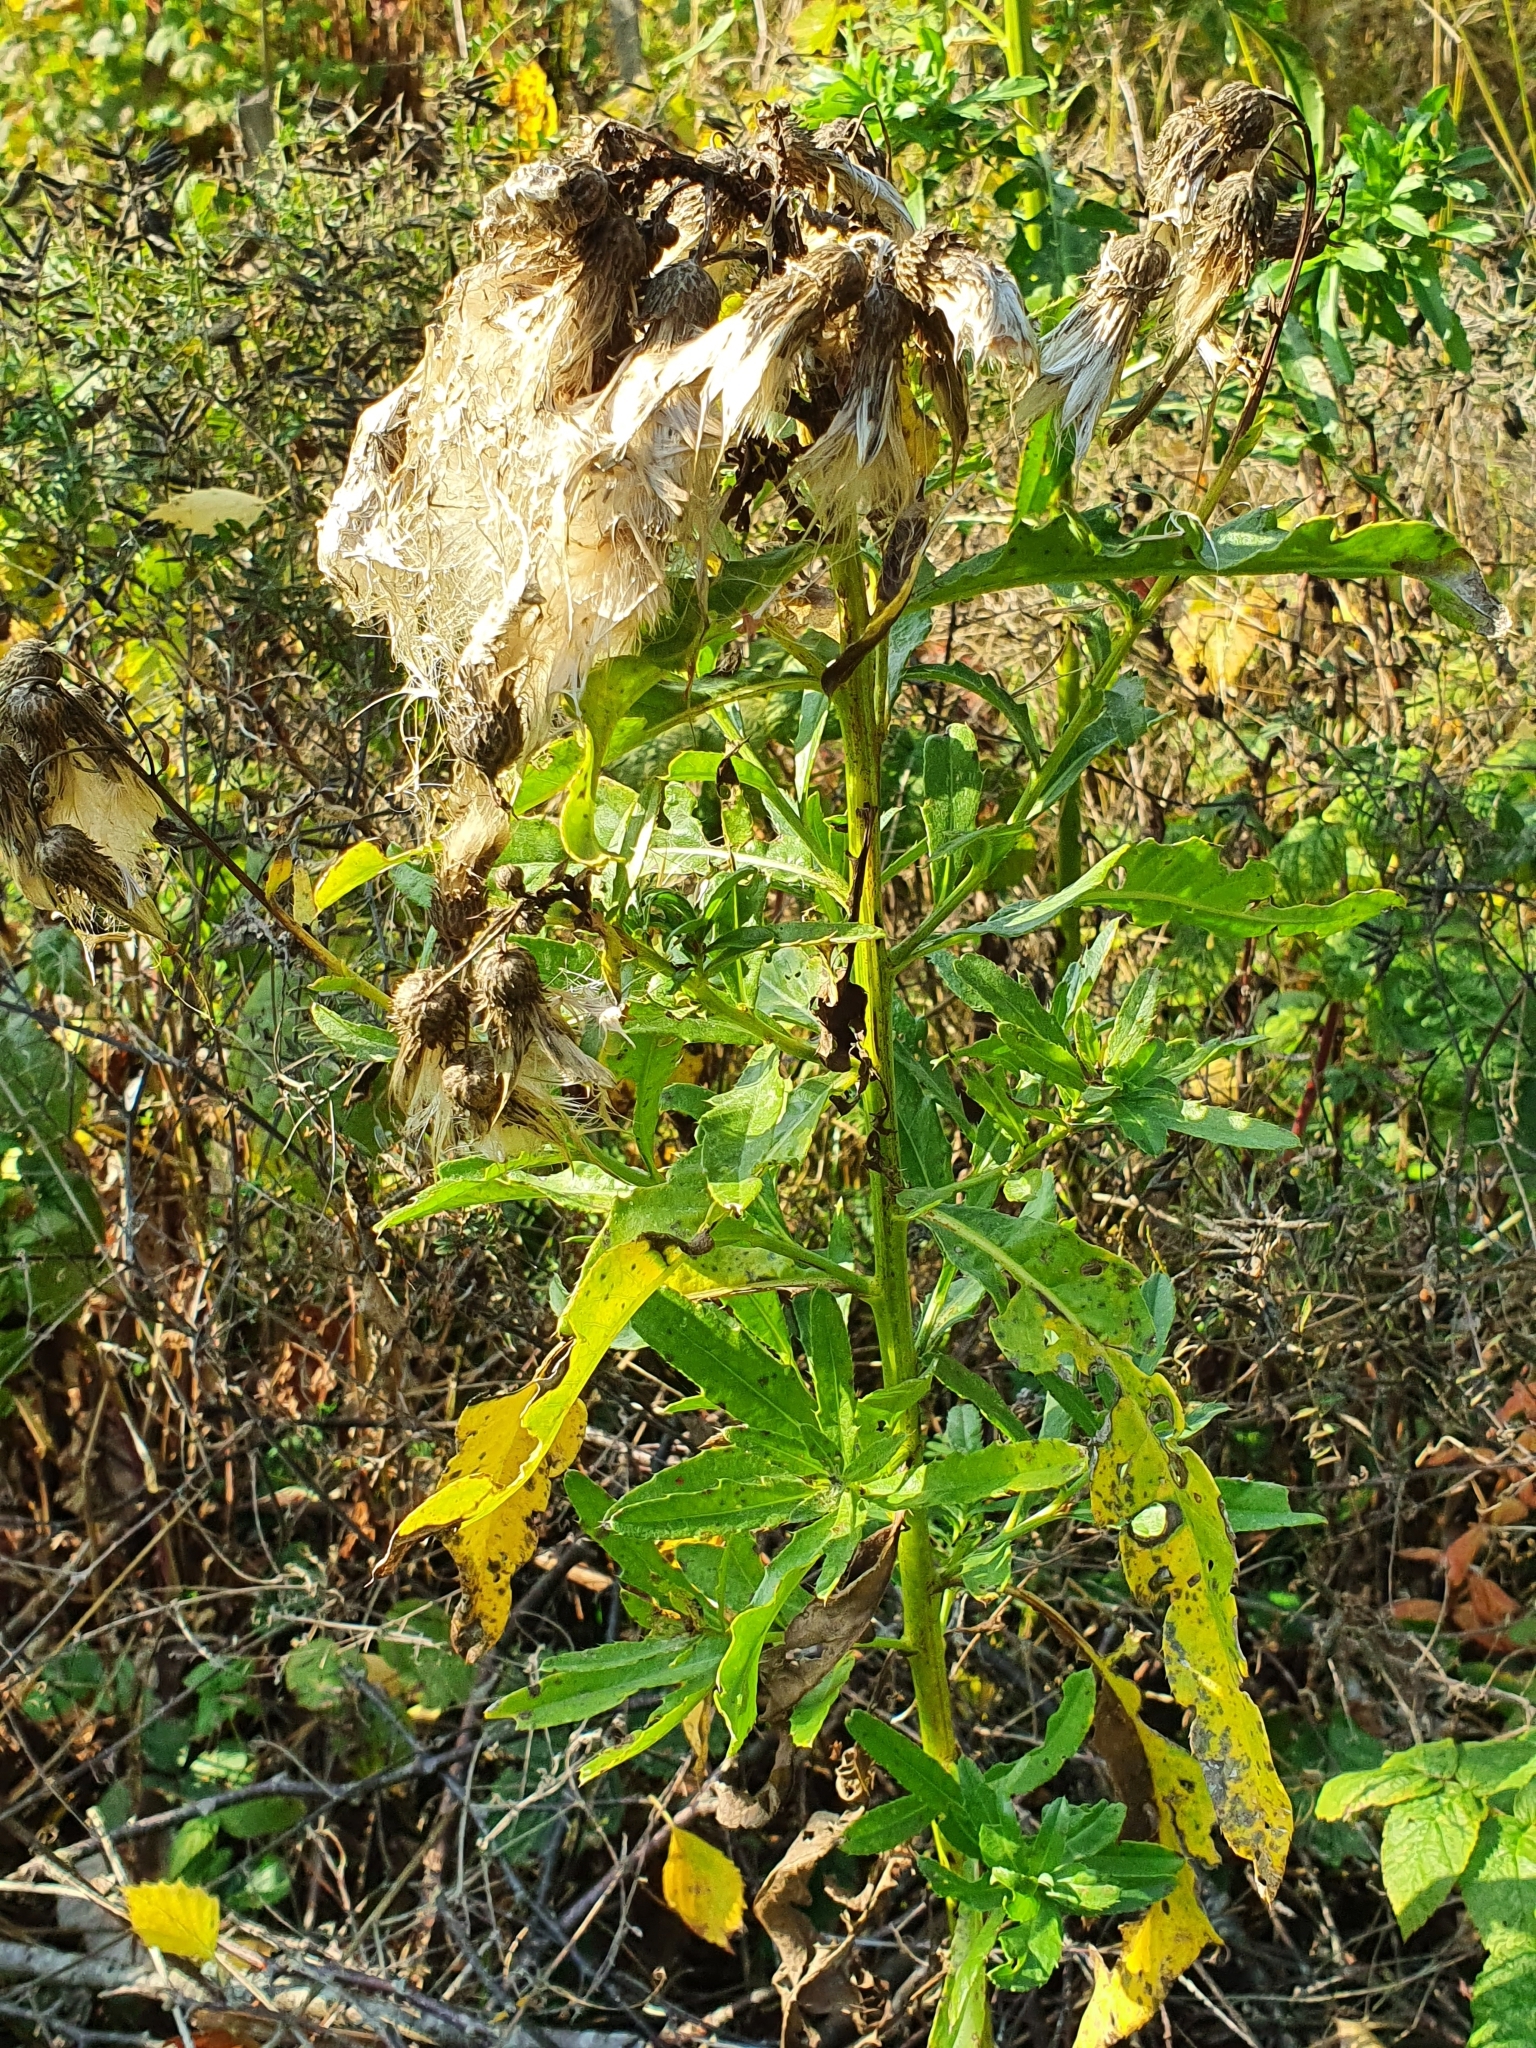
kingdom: Plantae
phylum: Tracheophyta
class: Magnoliopsida
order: Asterales
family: Asteraceae
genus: Cirsium
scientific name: Cirsium arvense
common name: Creeping thistle
